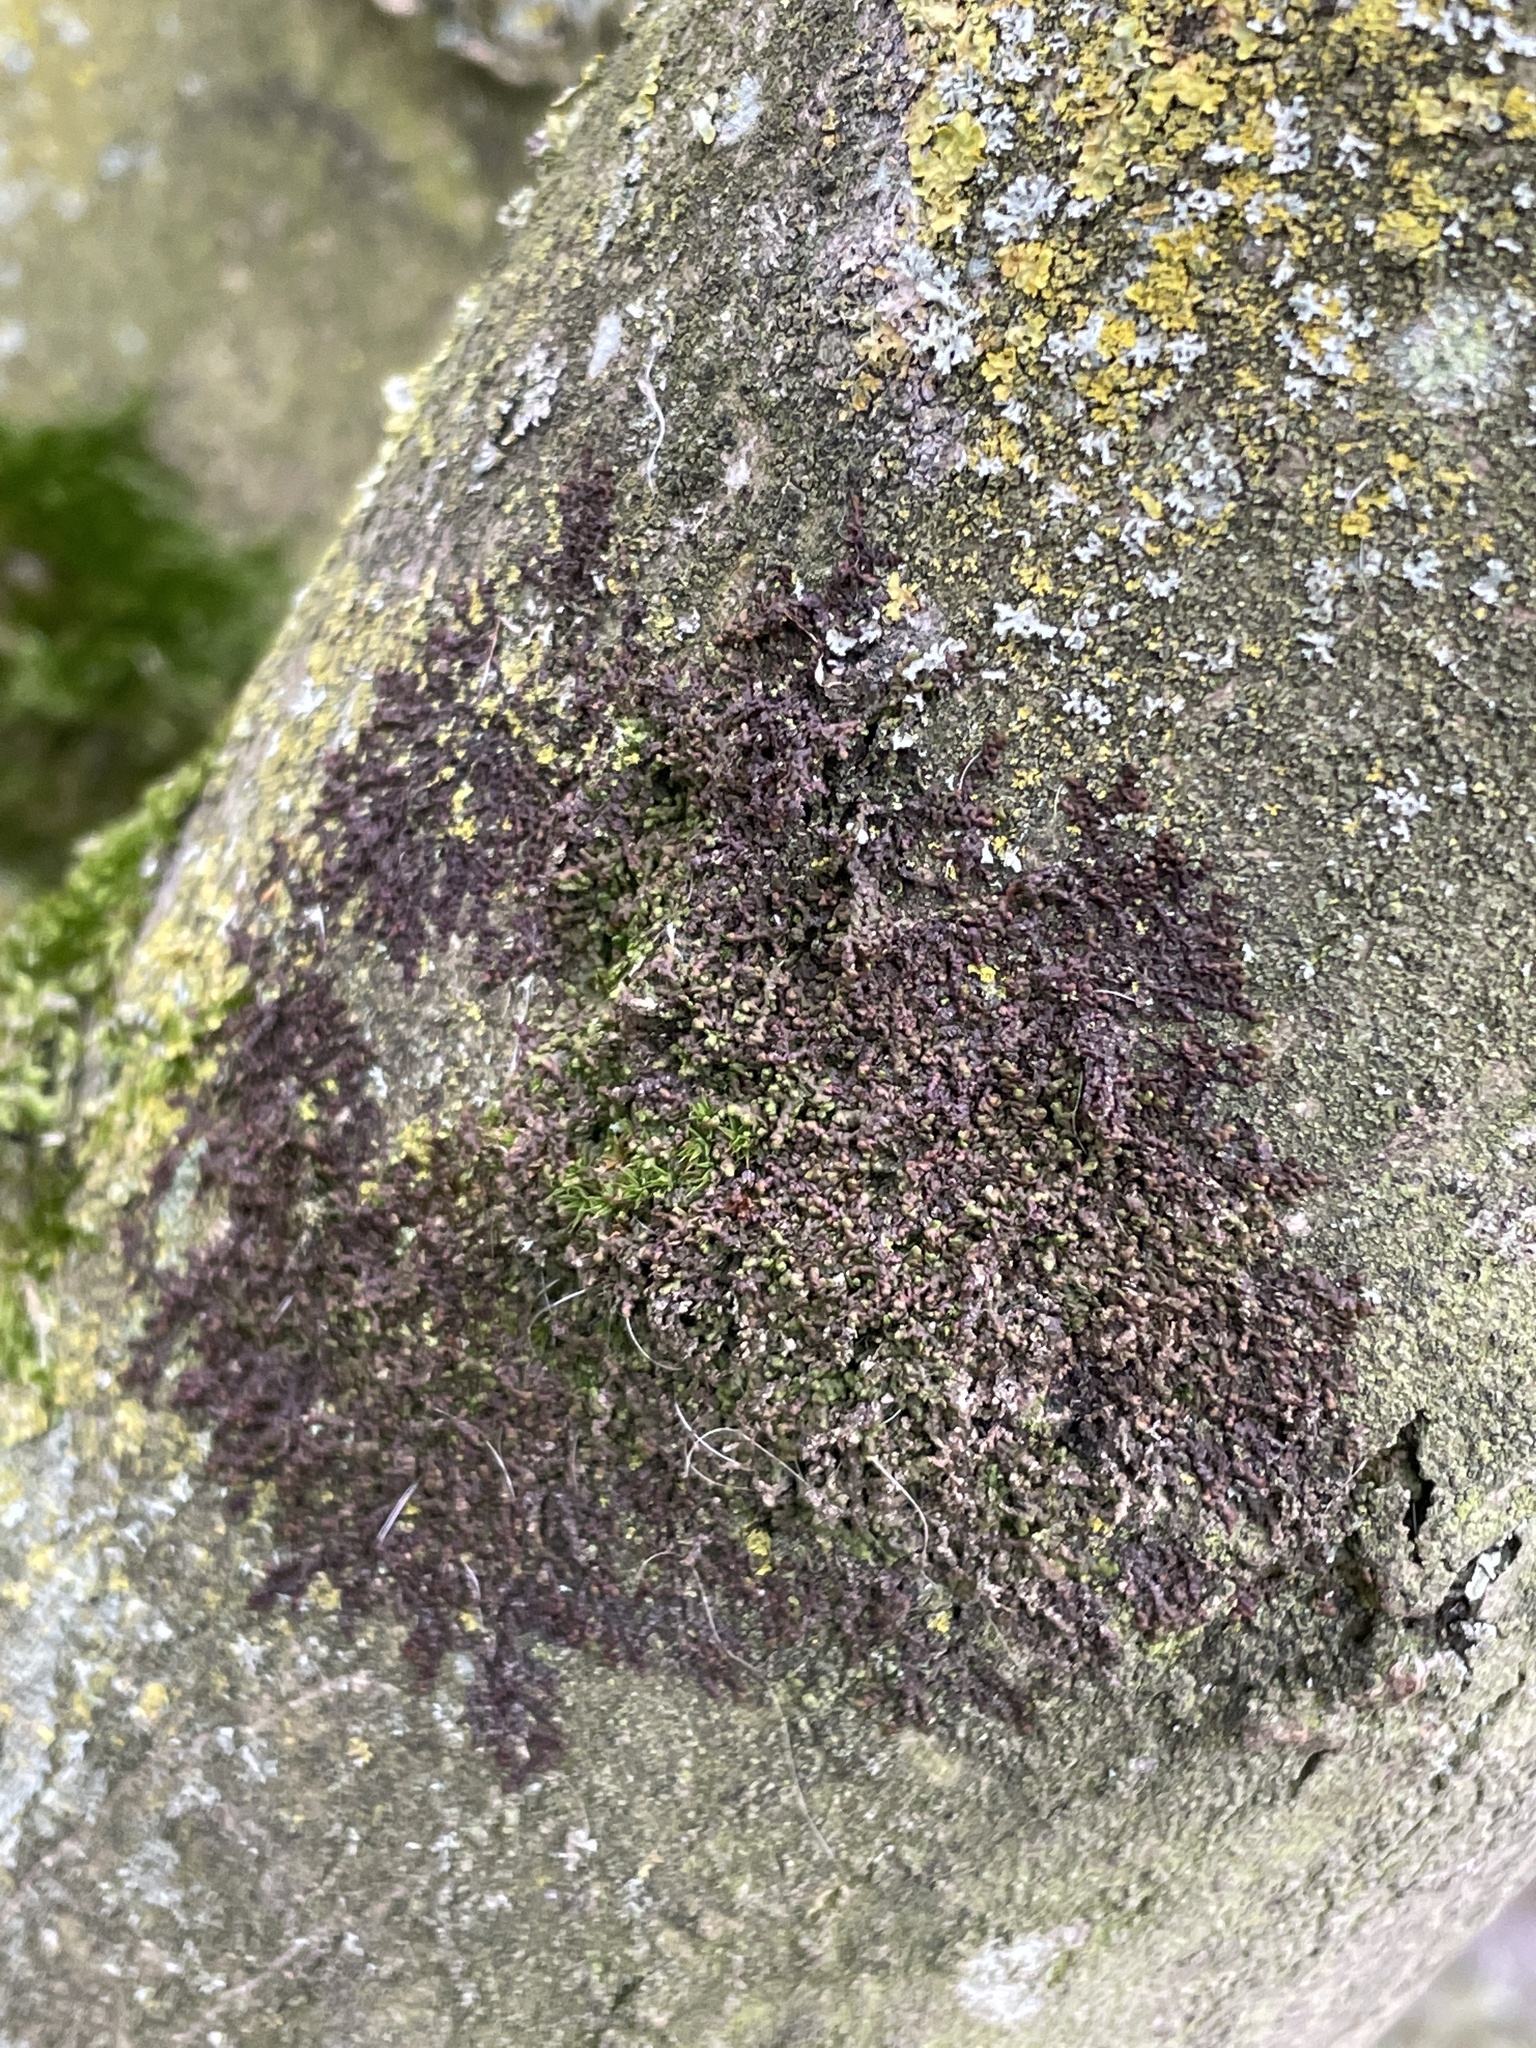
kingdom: Plantae
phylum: Marchantiophyta
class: Jungermanniopsida
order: Porellales
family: Frullaniaceae
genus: Frullania
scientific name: Frullania dilatata
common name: Dilated scalewort
